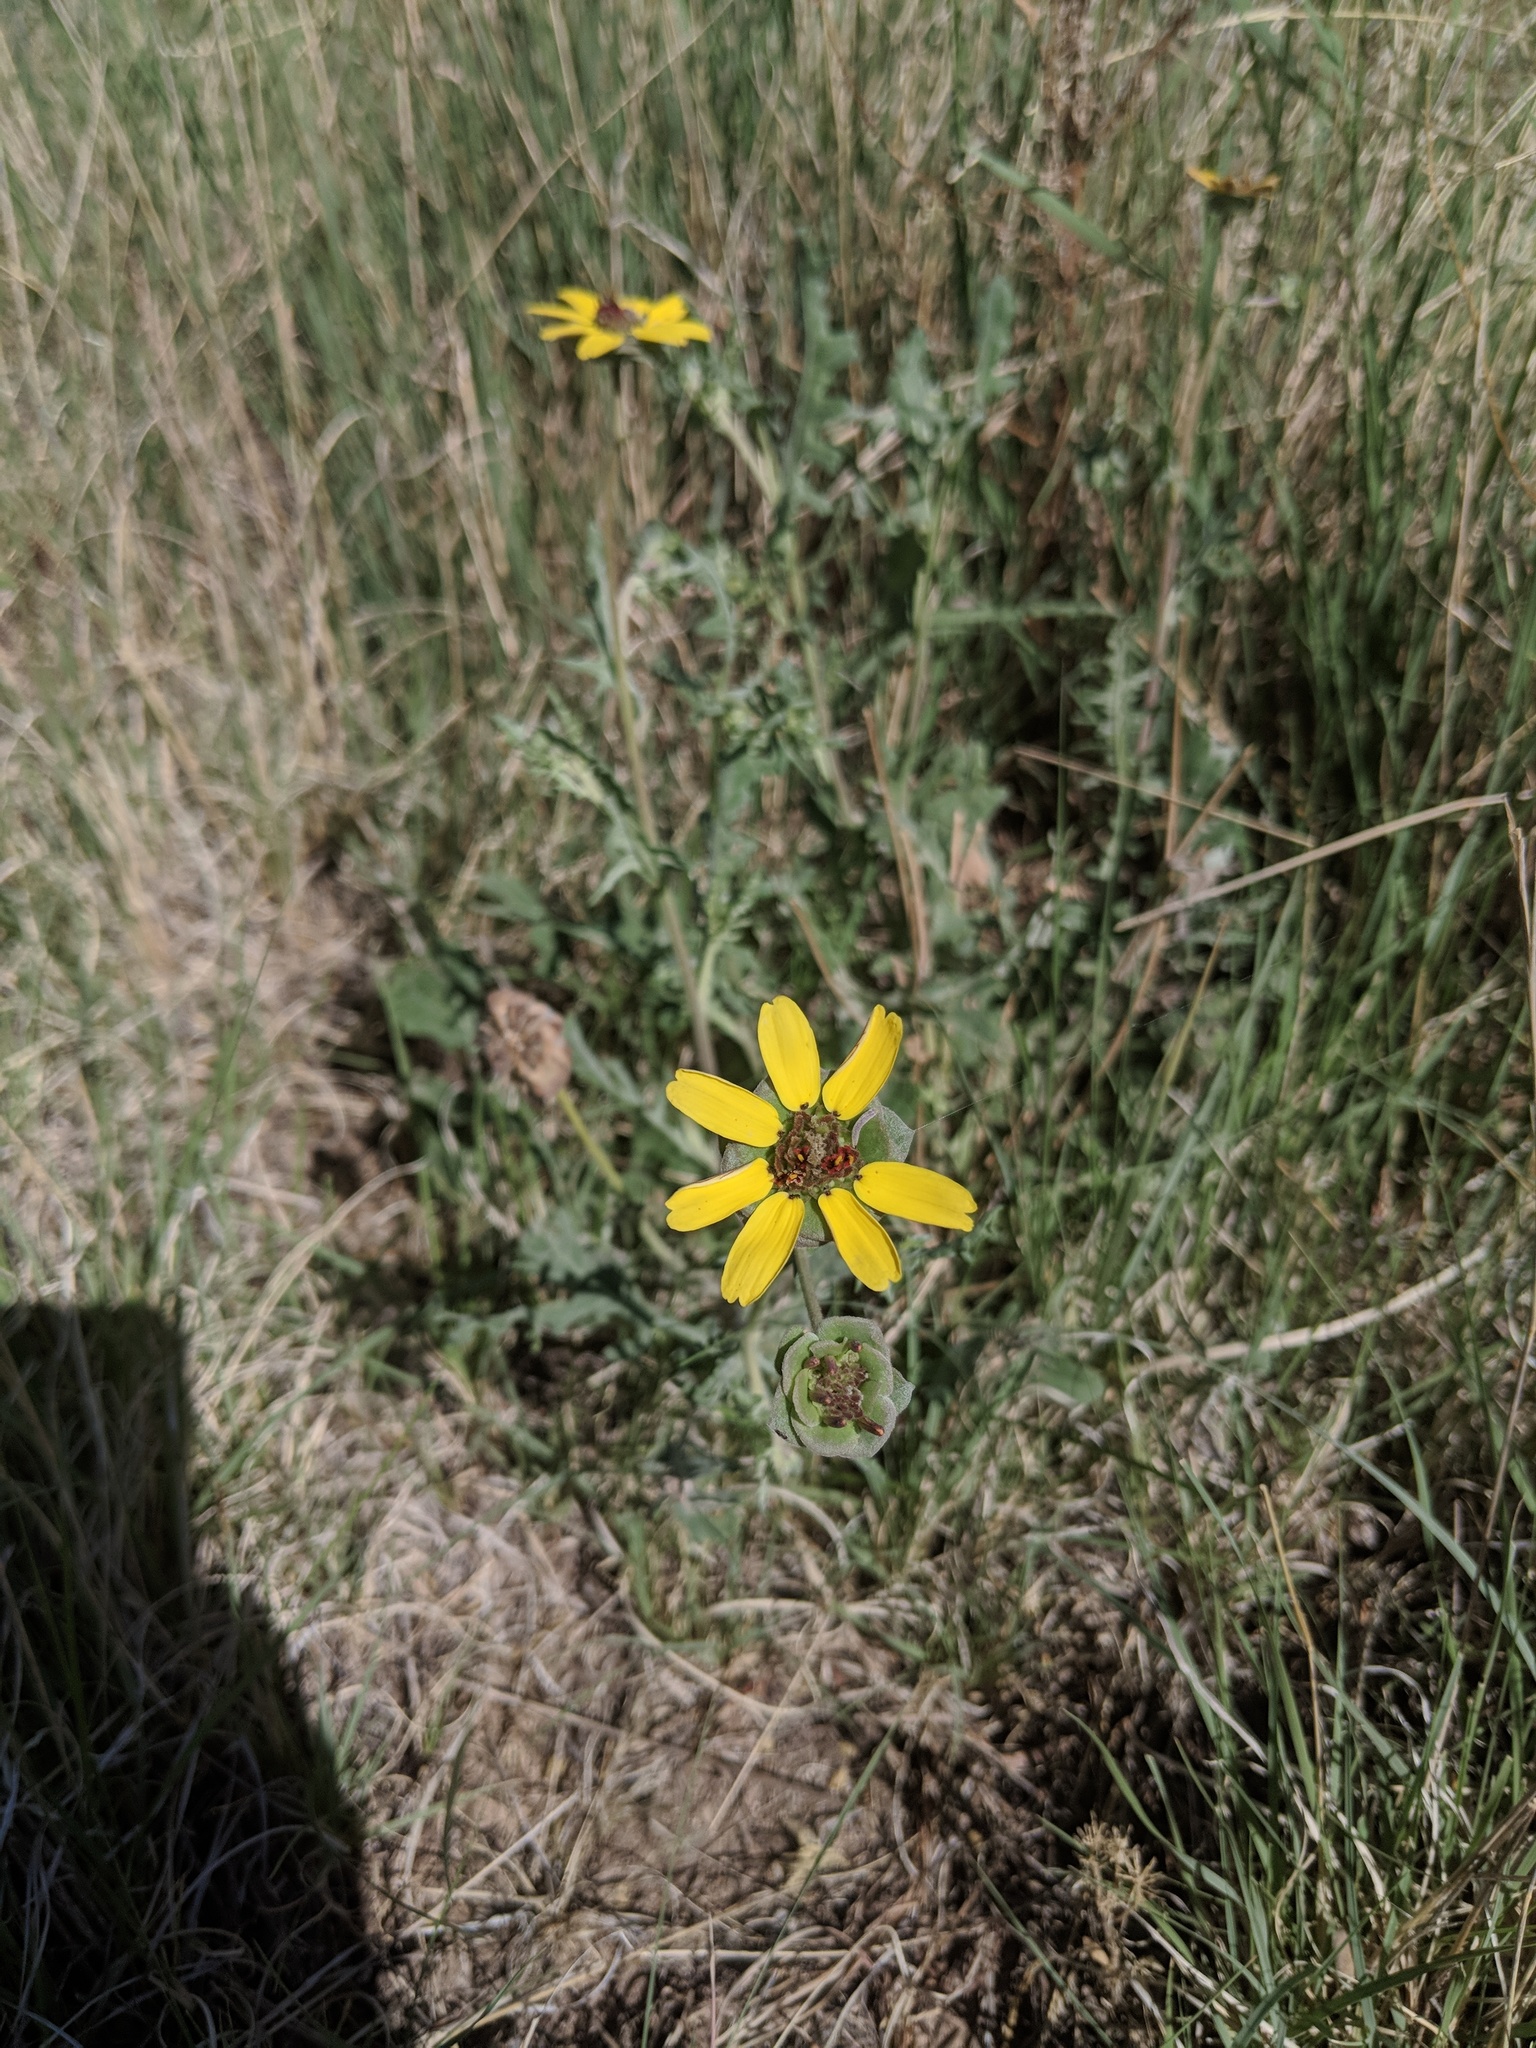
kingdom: Plantae
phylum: Tracheophyta
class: Magnoliopsida
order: Asterales
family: Asteraceae
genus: Berlandiera
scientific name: Berlandiera lyrata
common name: Chocolate-flower
